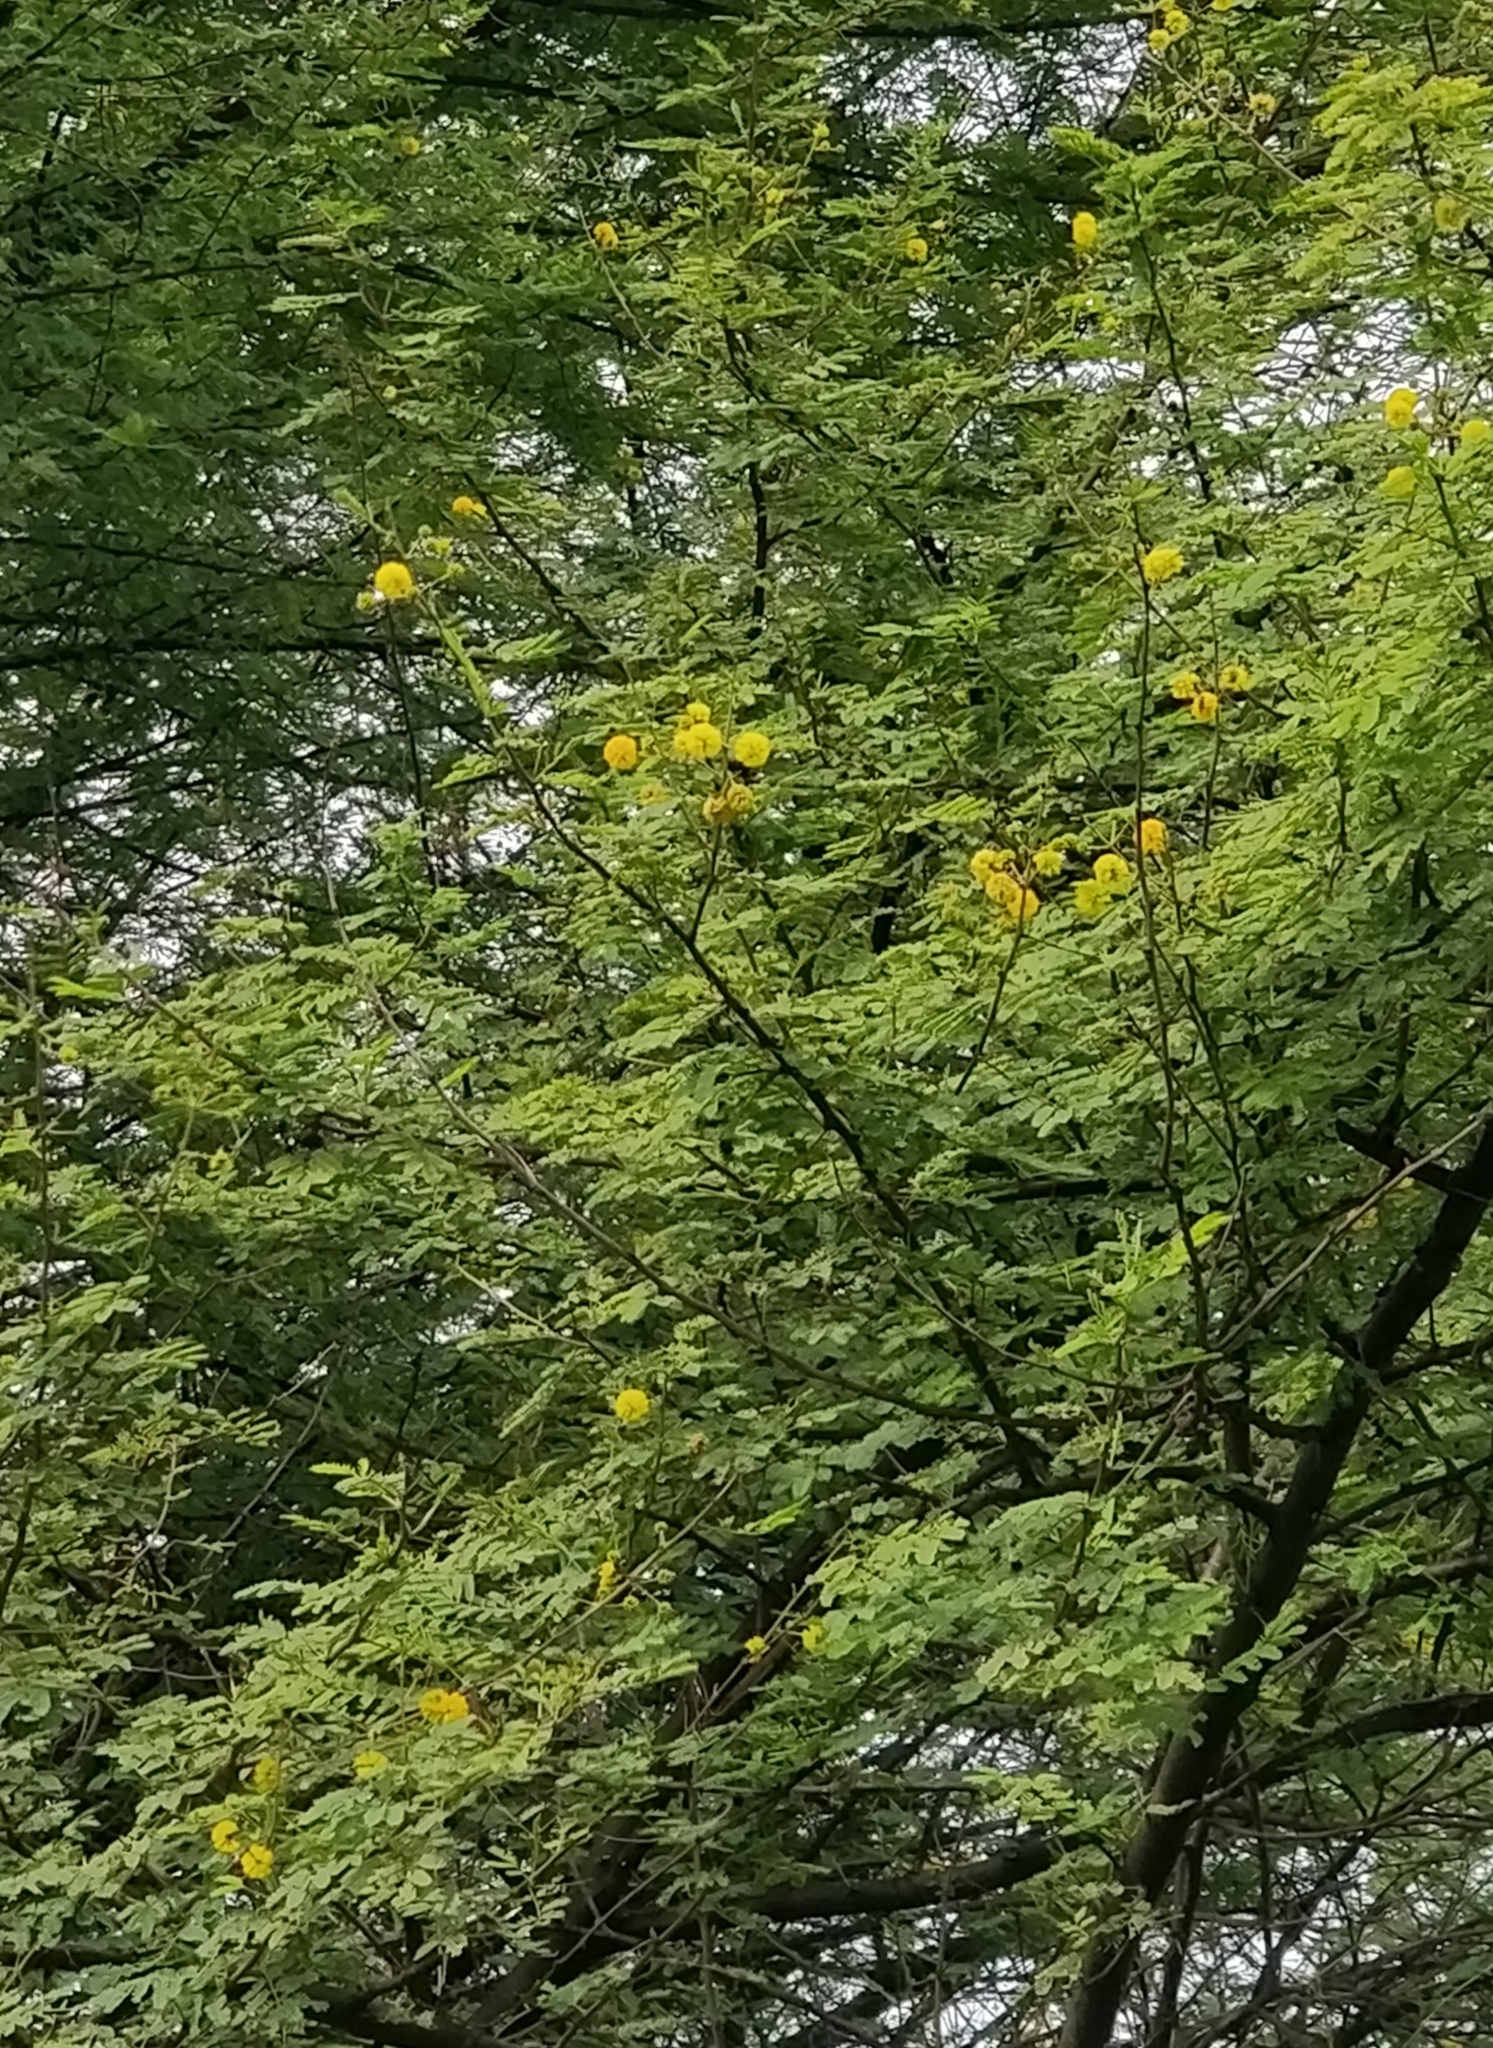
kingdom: Plantae
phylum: Tracheophyta
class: Magnoliopsida
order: Fabales
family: Fabaceae
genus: Vachellia
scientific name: Vachellia nilotica
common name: Arabic gumtree
